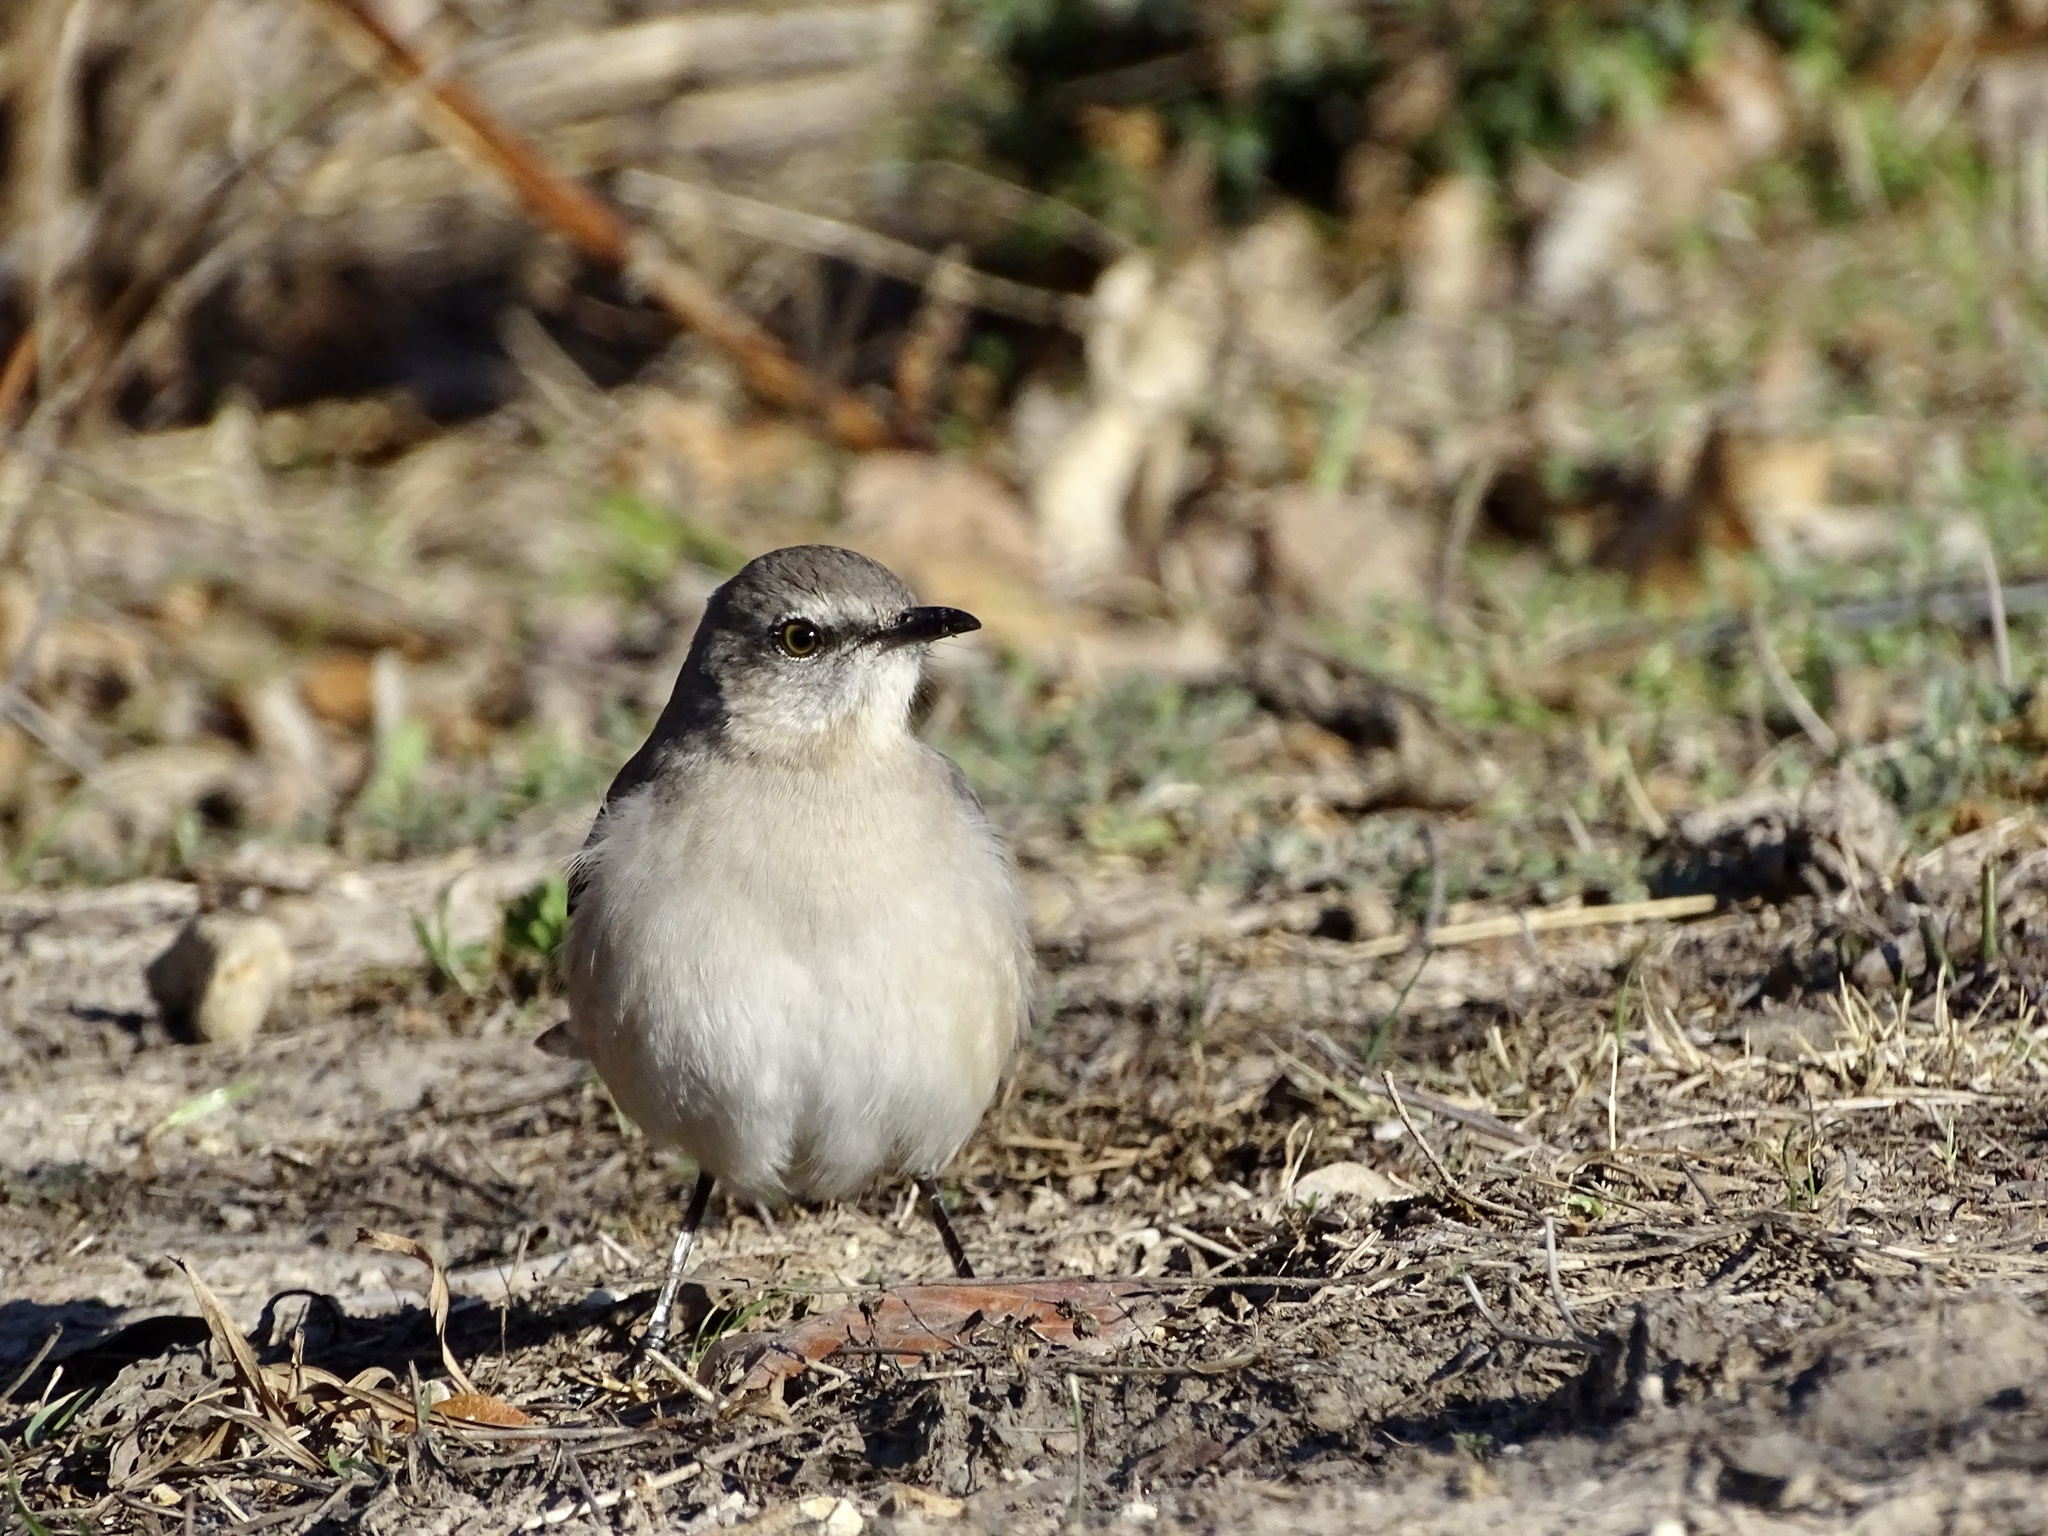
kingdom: Animalia
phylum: Chordata
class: Aves
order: Passeriformes
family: Mimidae
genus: Mimus
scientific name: Mimus polyglottos
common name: Northern mockingbird
